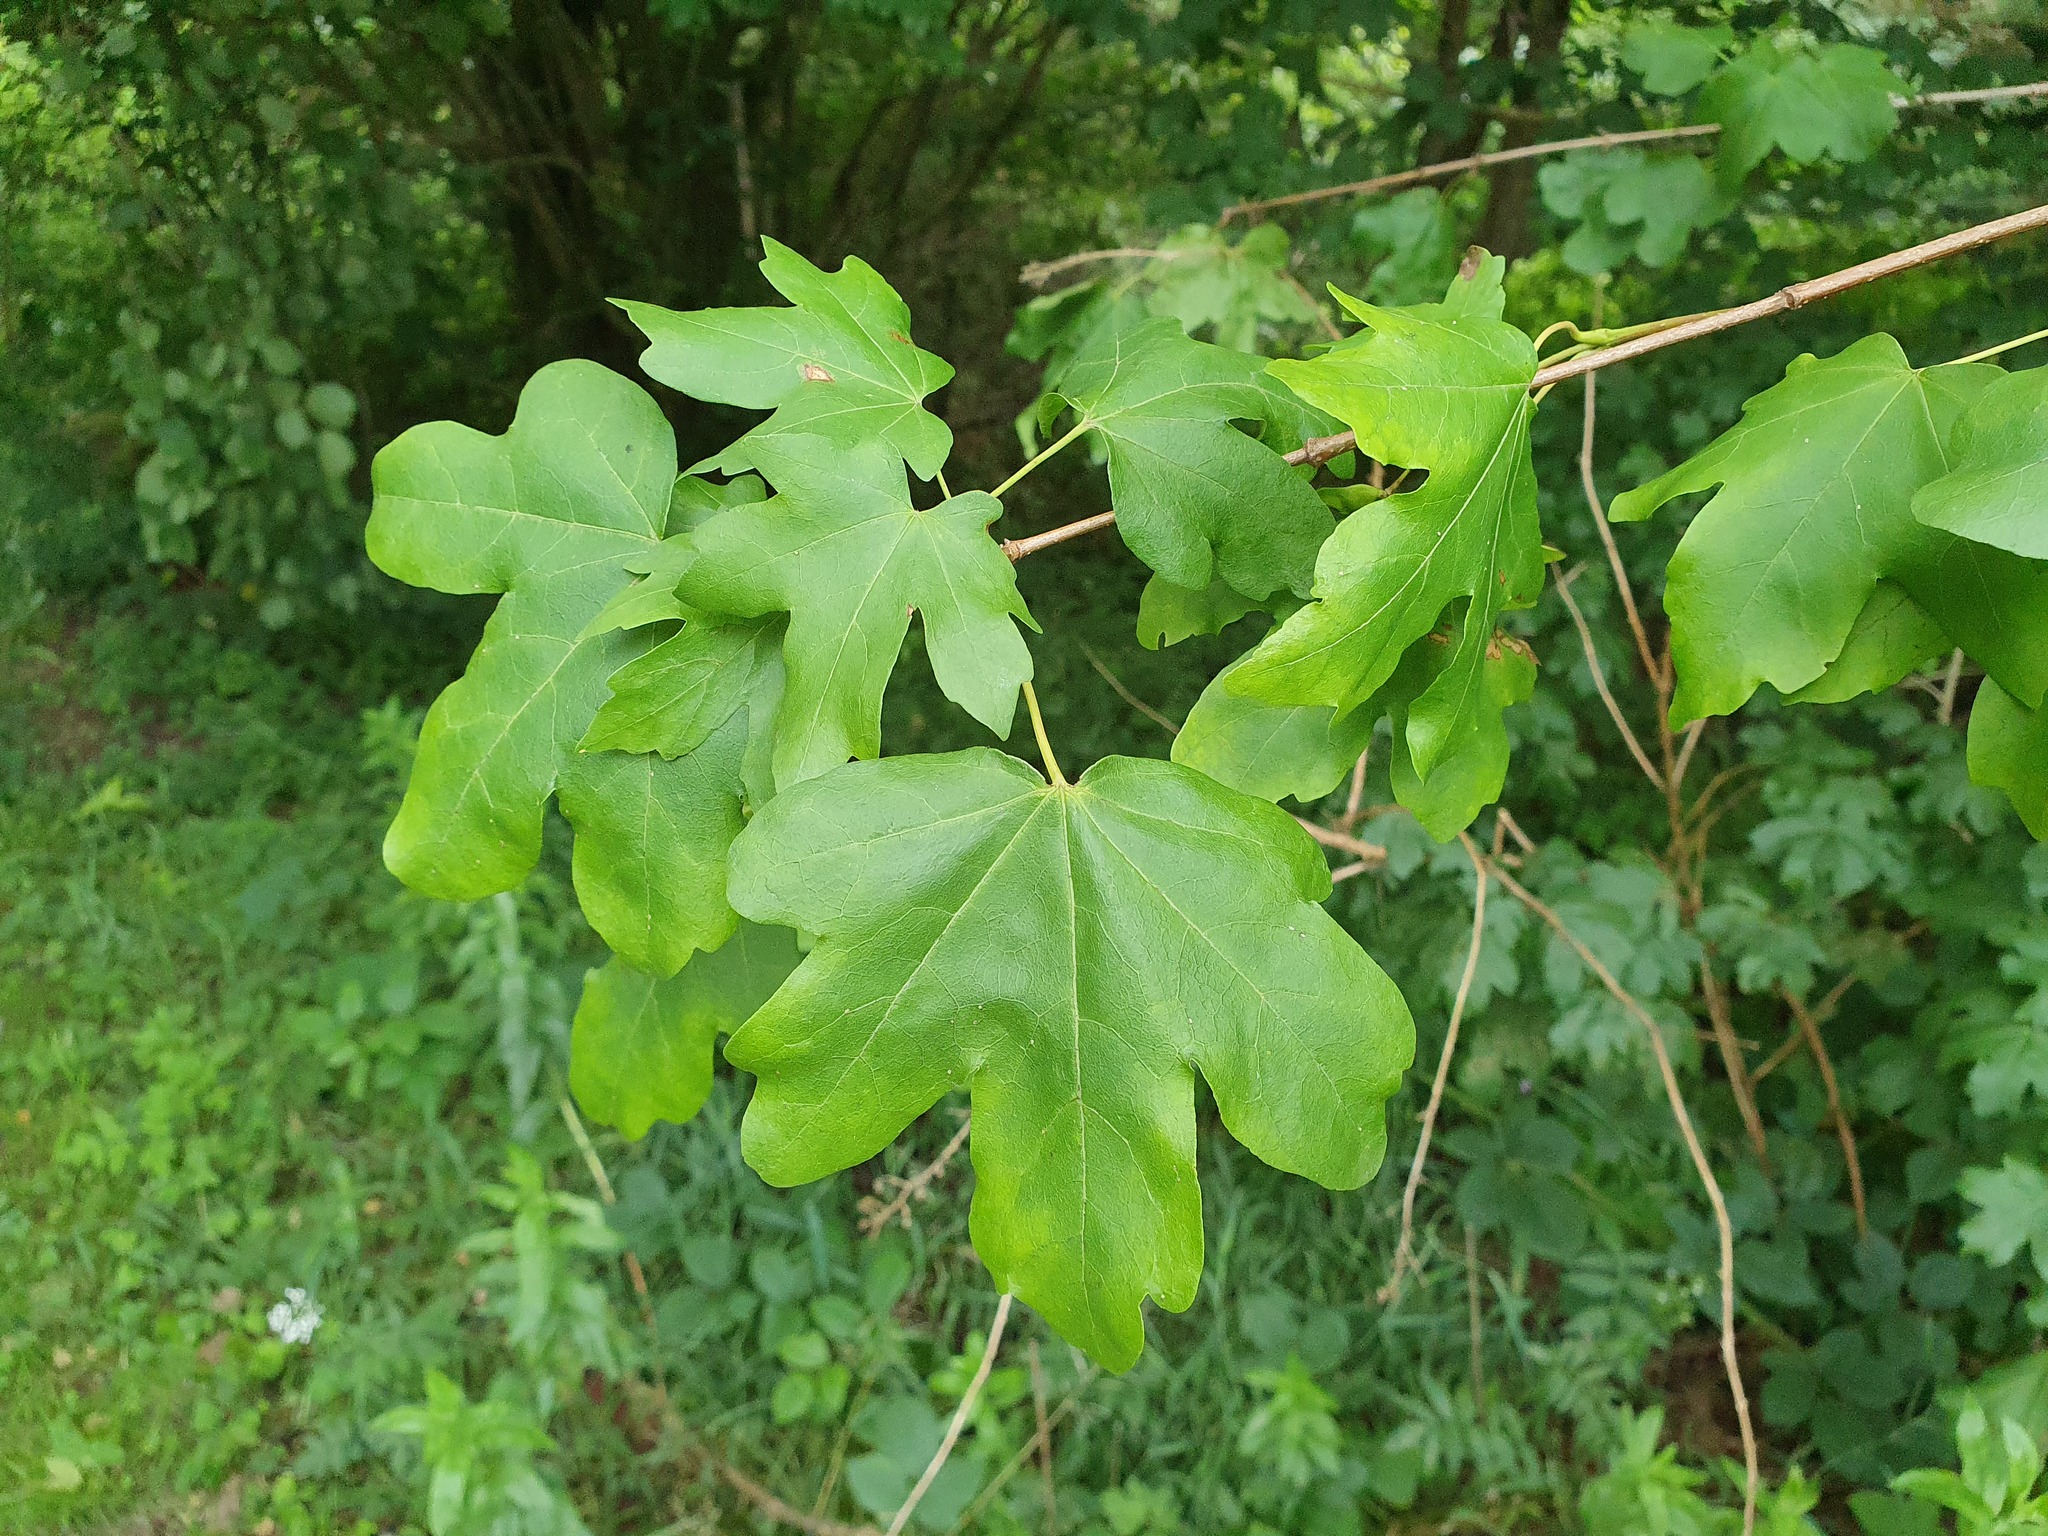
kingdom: Plantae
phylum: Tracheophyta
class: Magnoliopsida
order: Sapindales
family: Sapindaceae
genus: Acer
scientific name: Acer campestre
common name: Field maple
